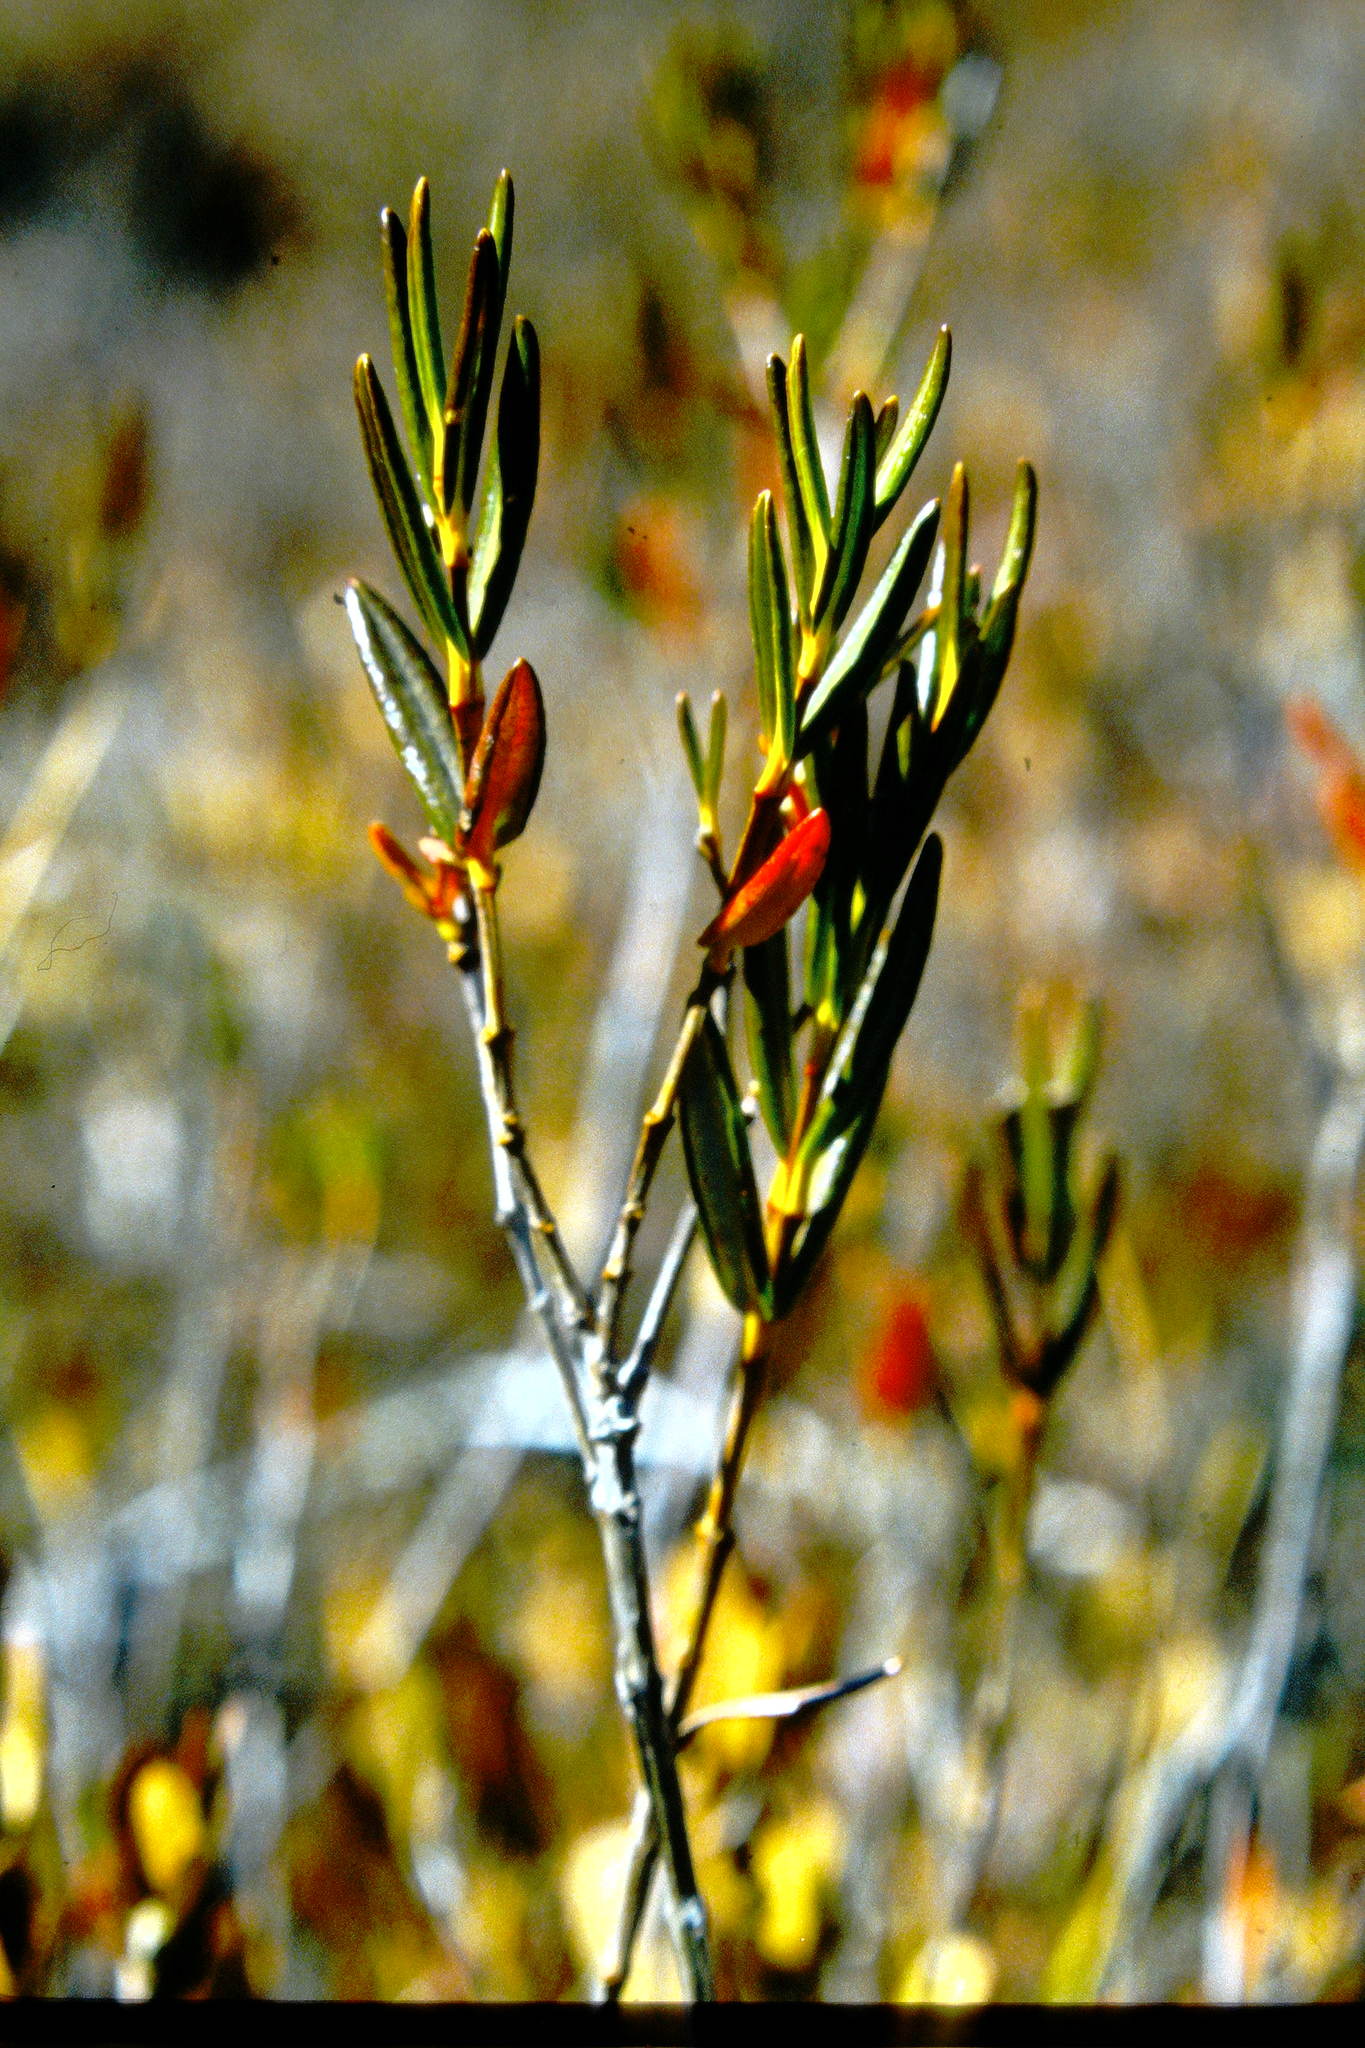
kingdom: Plantae
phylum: Tracheophyta
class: Magnoliopsida
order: Ericales
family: Ericaceae
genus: Kalmia
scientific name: Kalmia polifolia
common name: Bog-laurel
